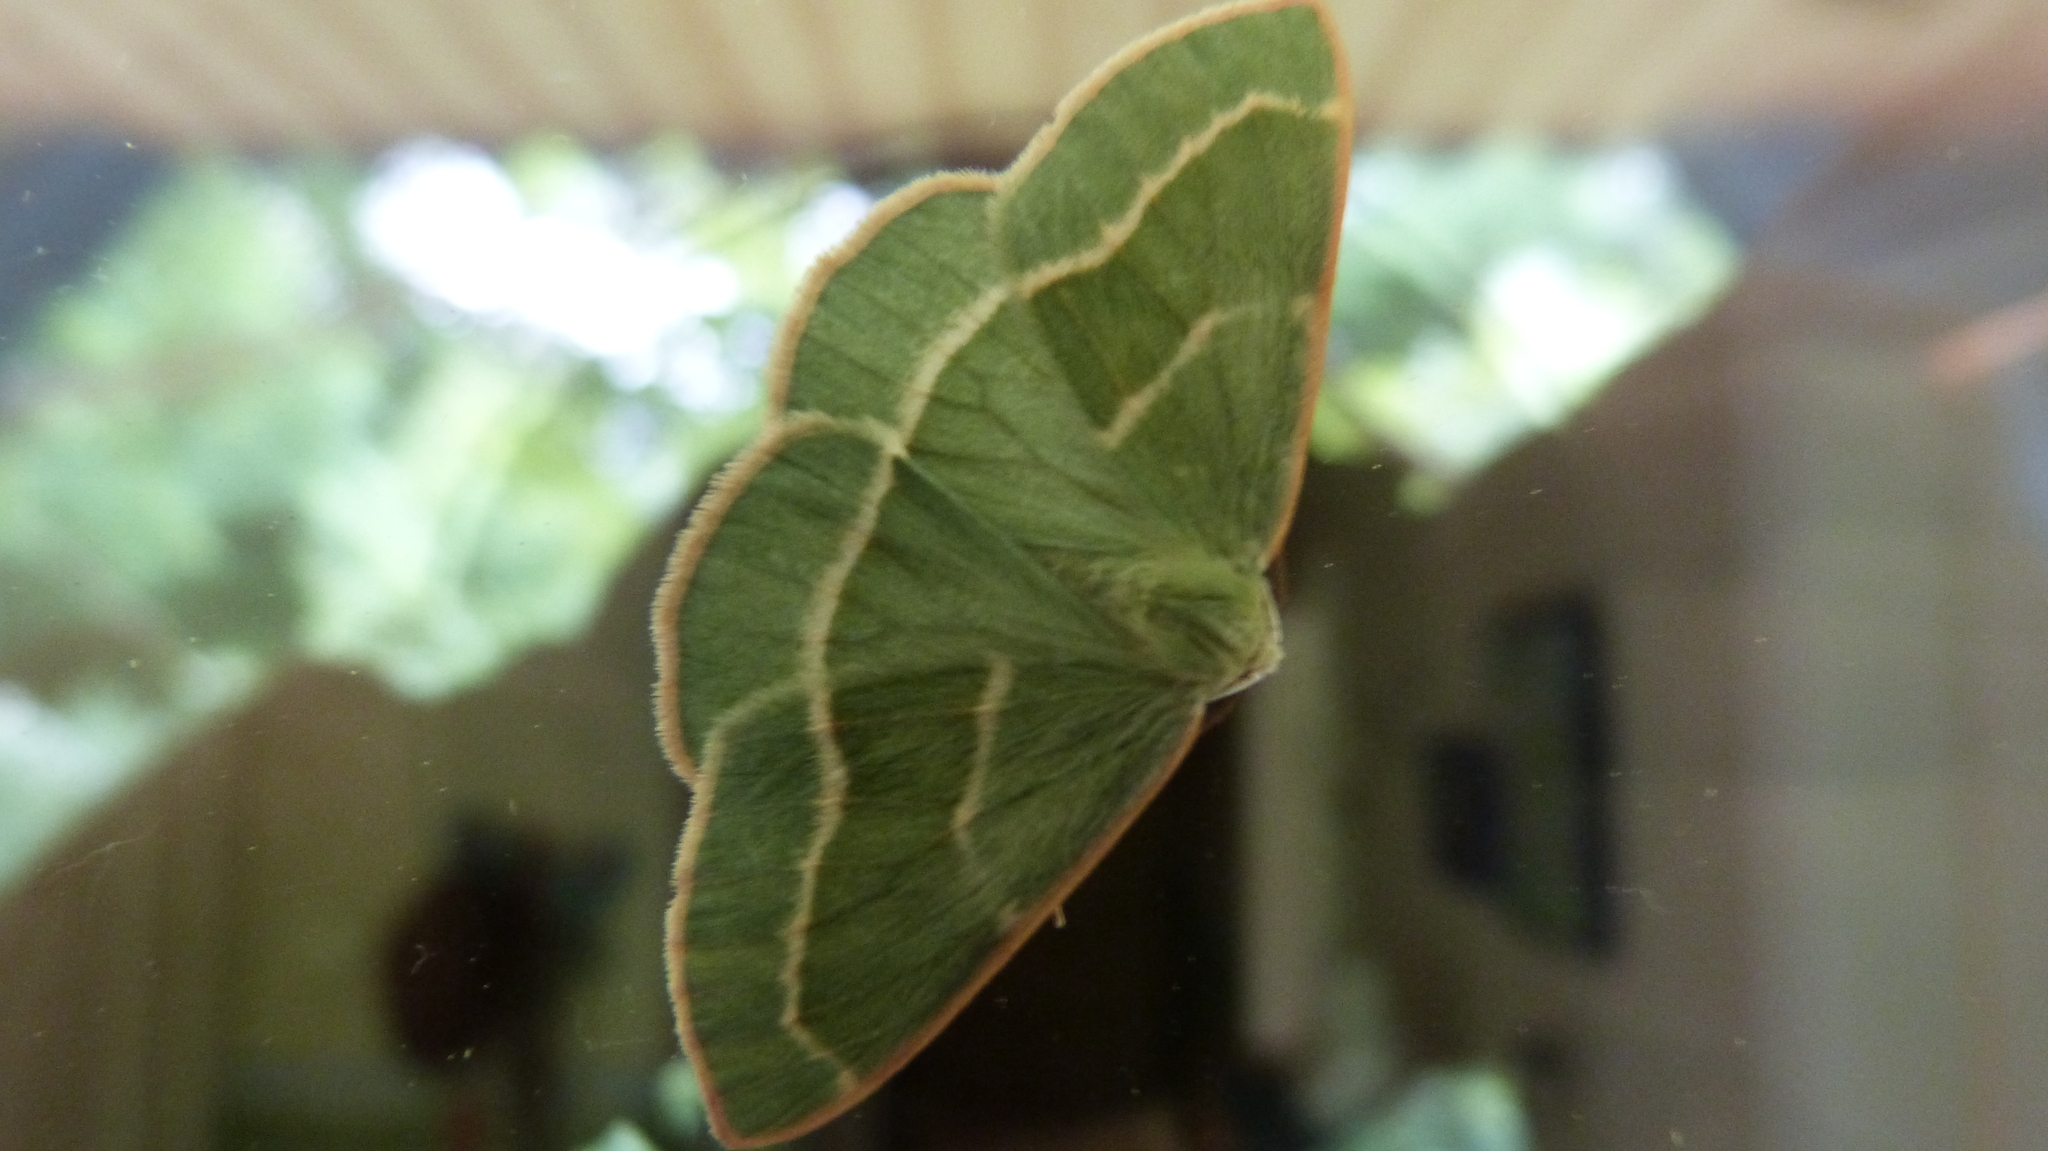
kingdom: Animalia
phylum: Arthropoda
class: Insecta
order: Lepidoptera
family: Geometridae
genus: Hylaea
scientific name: Hylaea fasciaria
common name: Barred red
